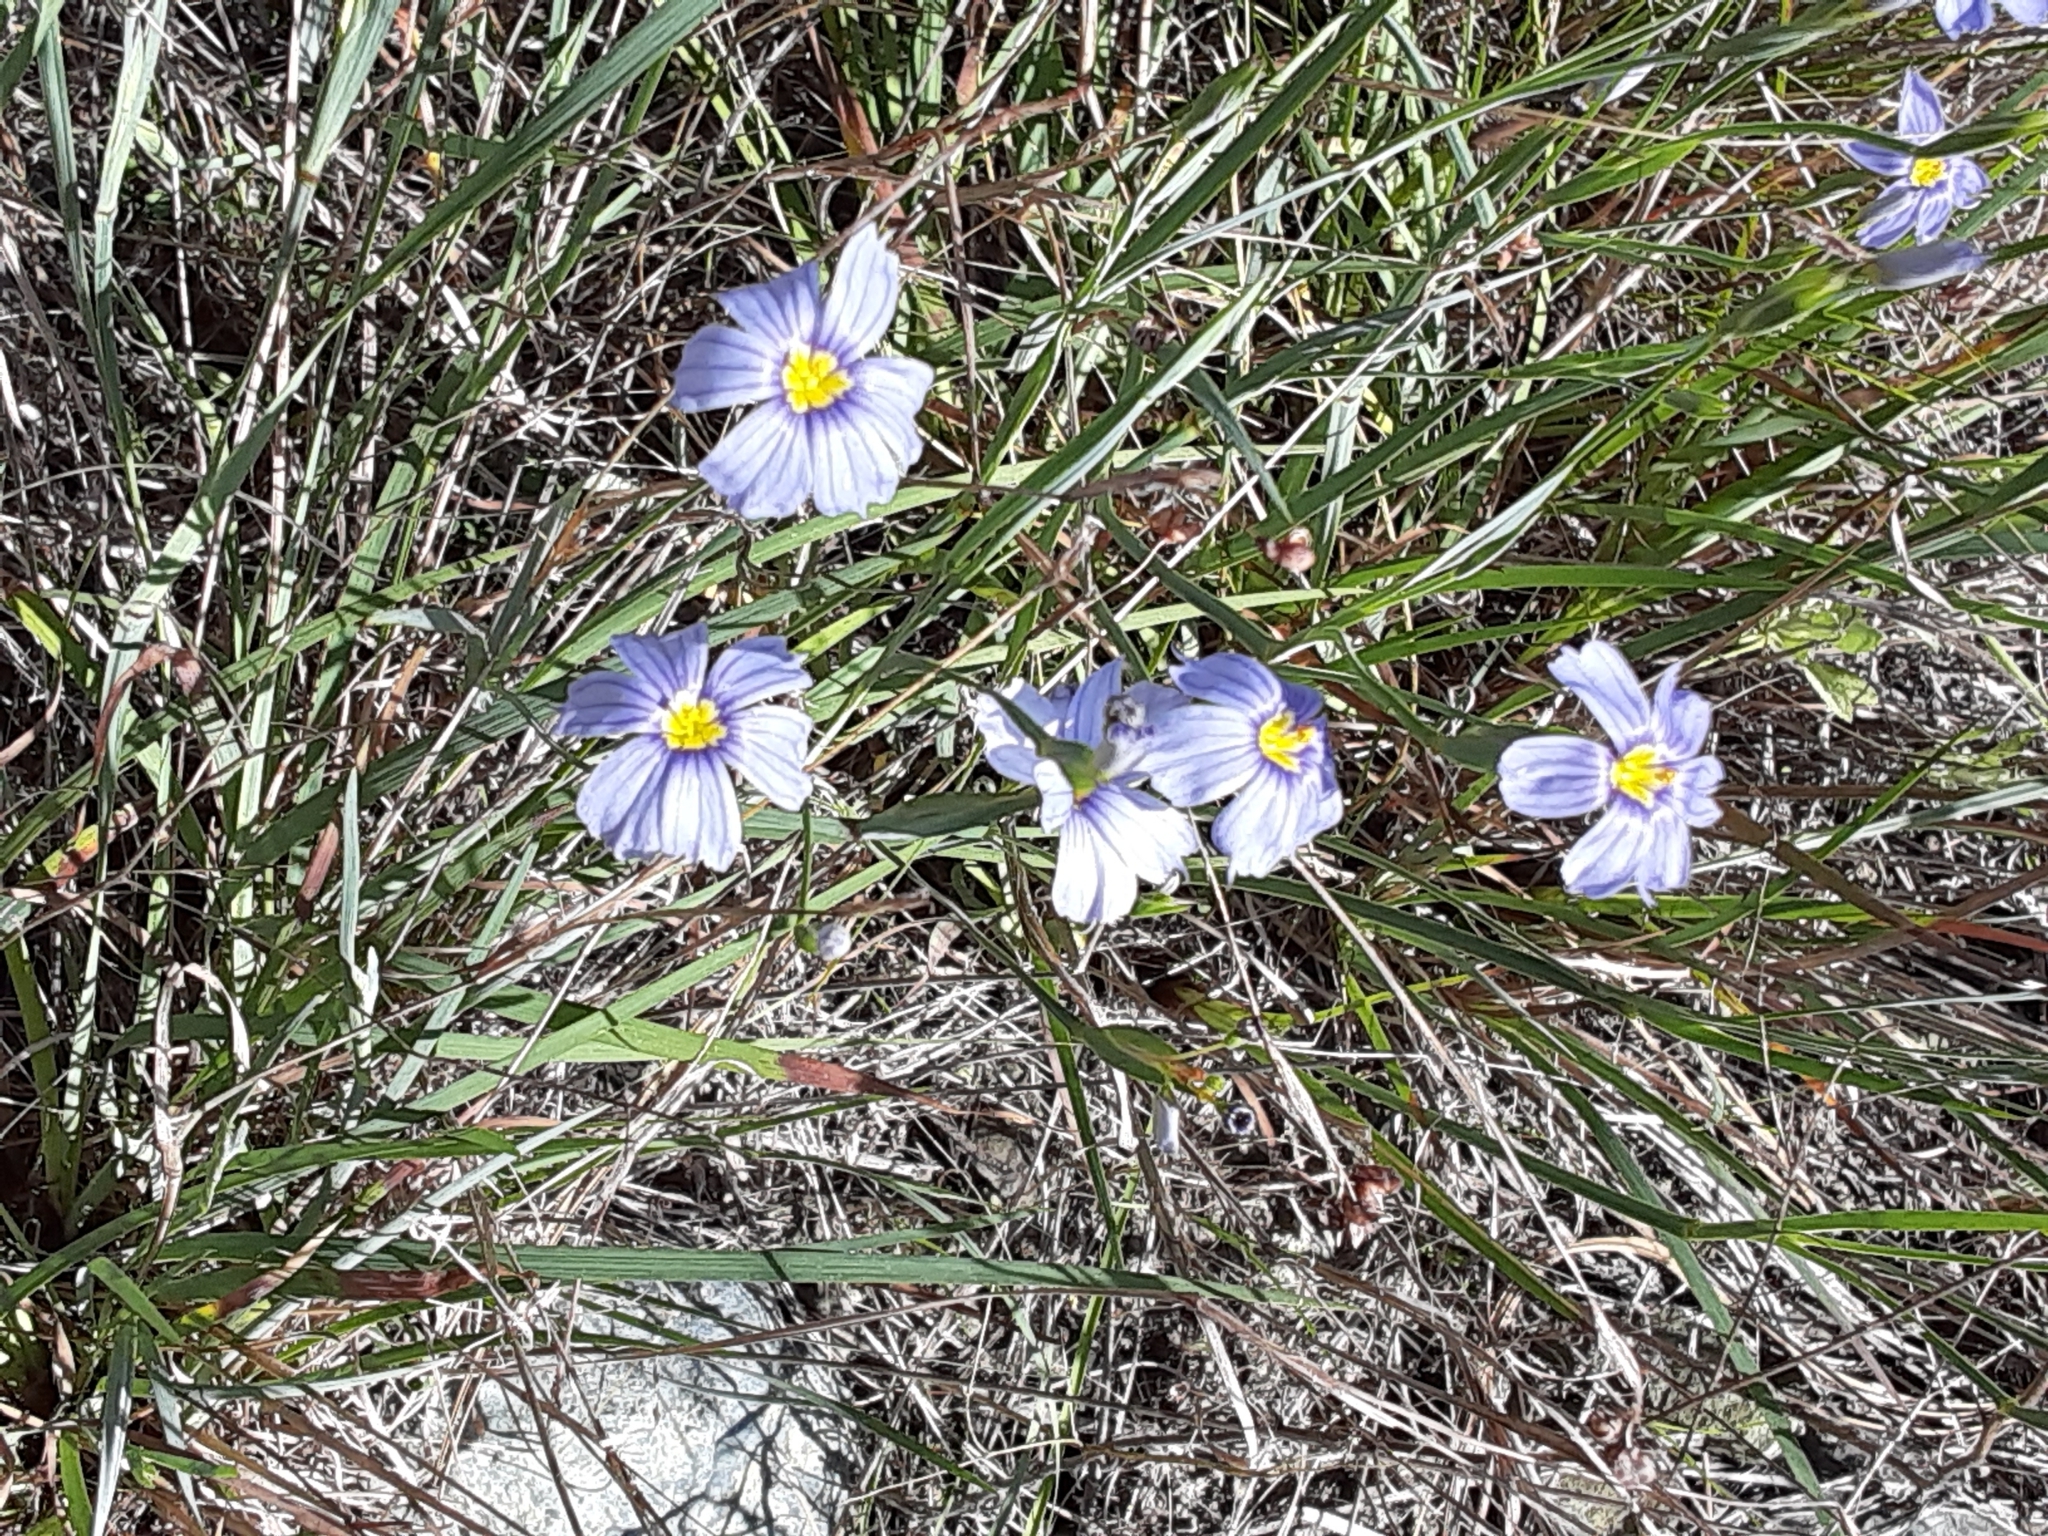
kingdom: Plantae
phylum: Tracheophyta
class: Liliopsida
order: Asparagales
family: Iridaceae
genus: Sisyrinchium
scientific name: Sisyrinchium bellum
